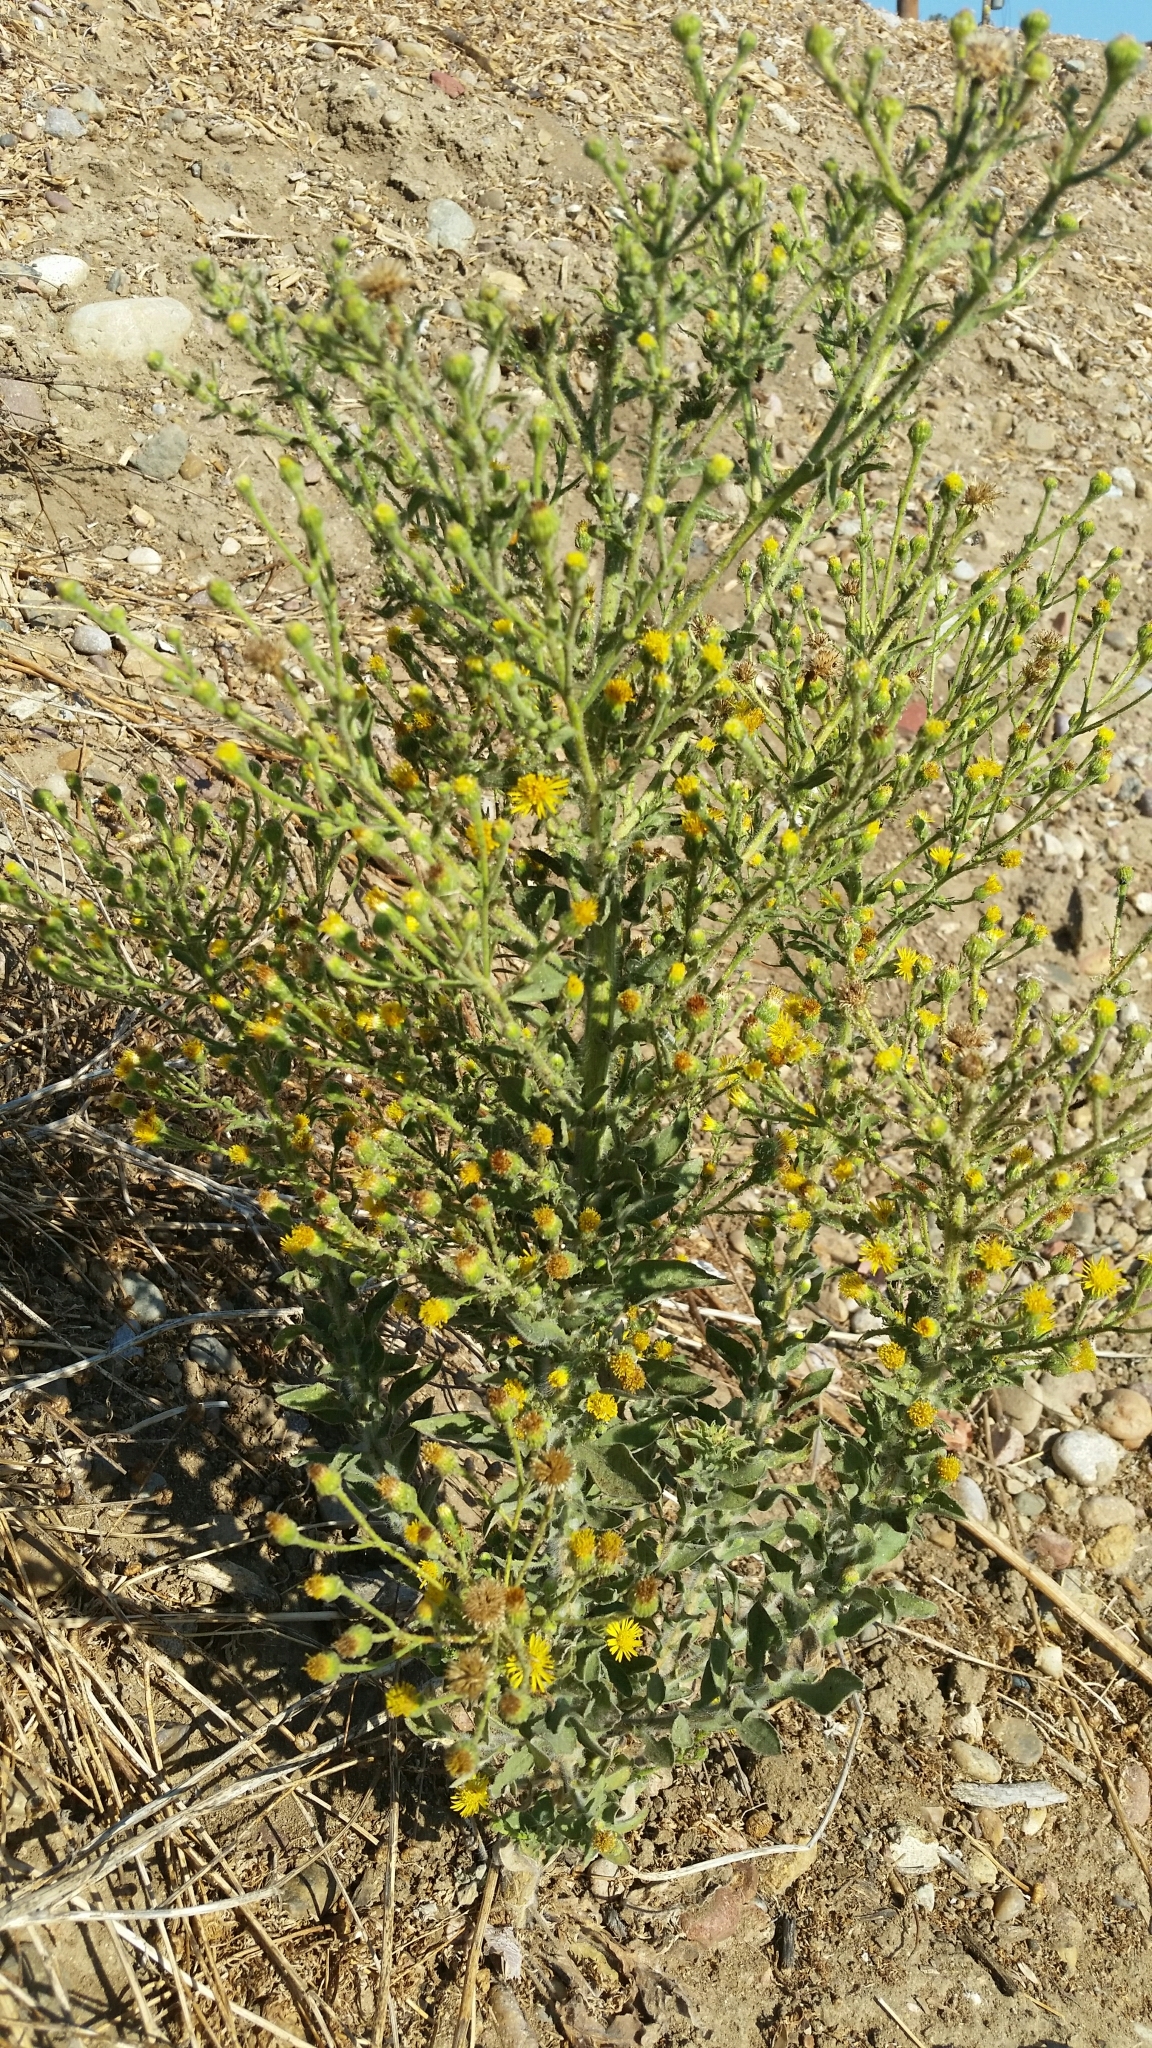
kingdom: Plantae
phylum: Tracheophyta
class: Magnoliopsida
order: Asterales
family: Asteraceae
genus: Heterotheca
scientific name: Heterotheca grandiflora
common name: Telegraphweed
